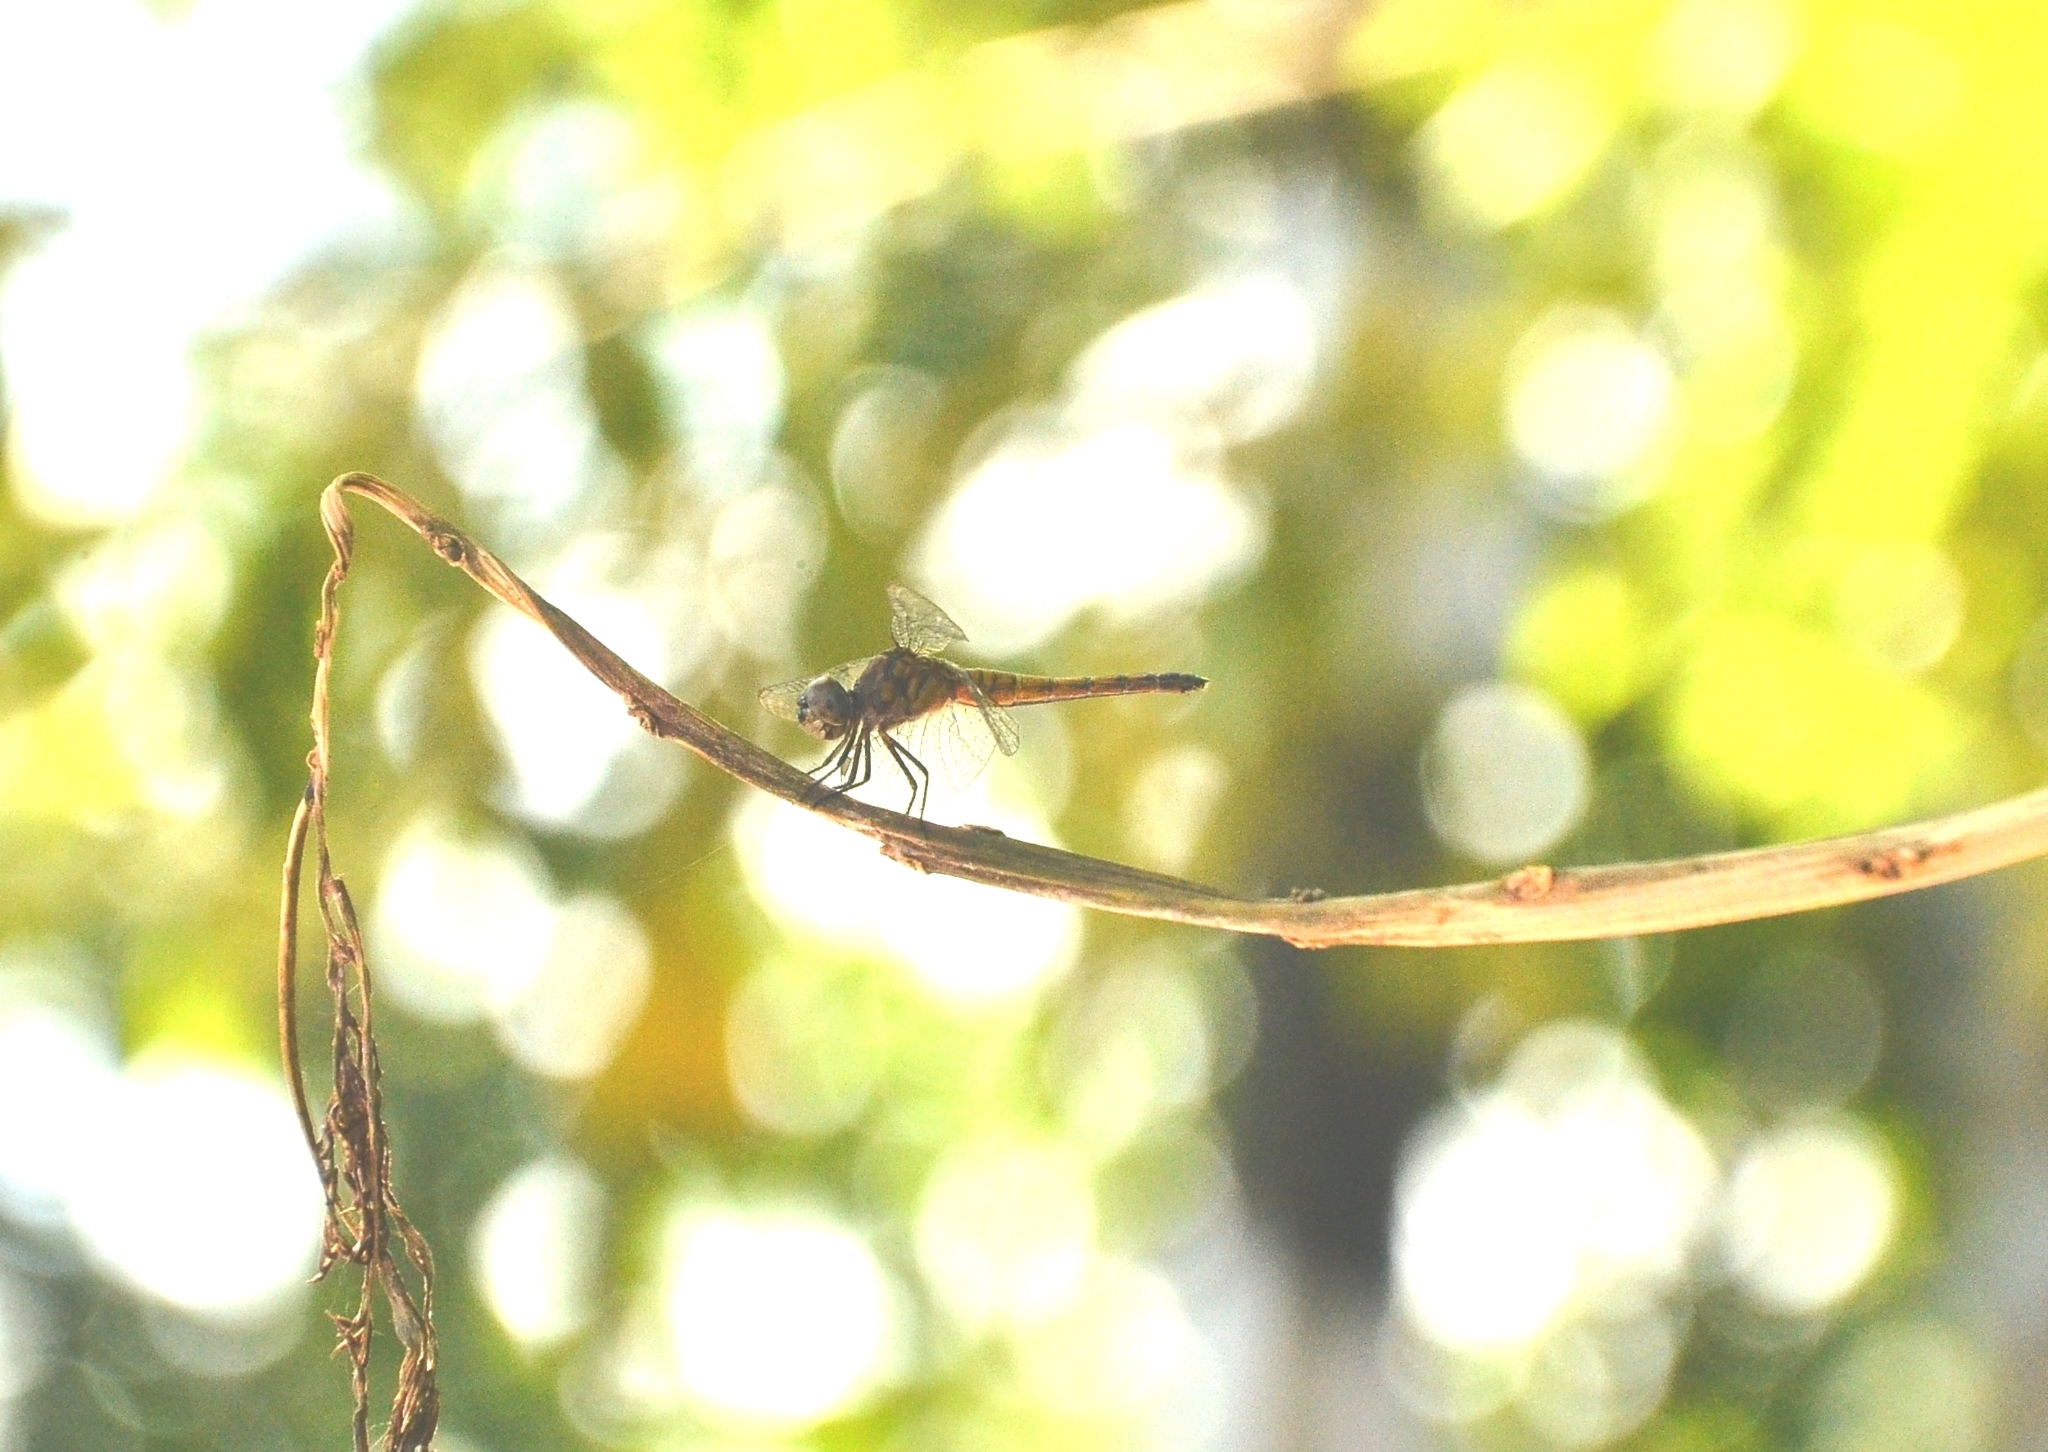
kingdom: Animalia
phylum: Arthropoda
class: Insecta
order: Odonata
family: Libellulidae
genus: Brachydiplax
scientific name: Brachydiplax chalybea
